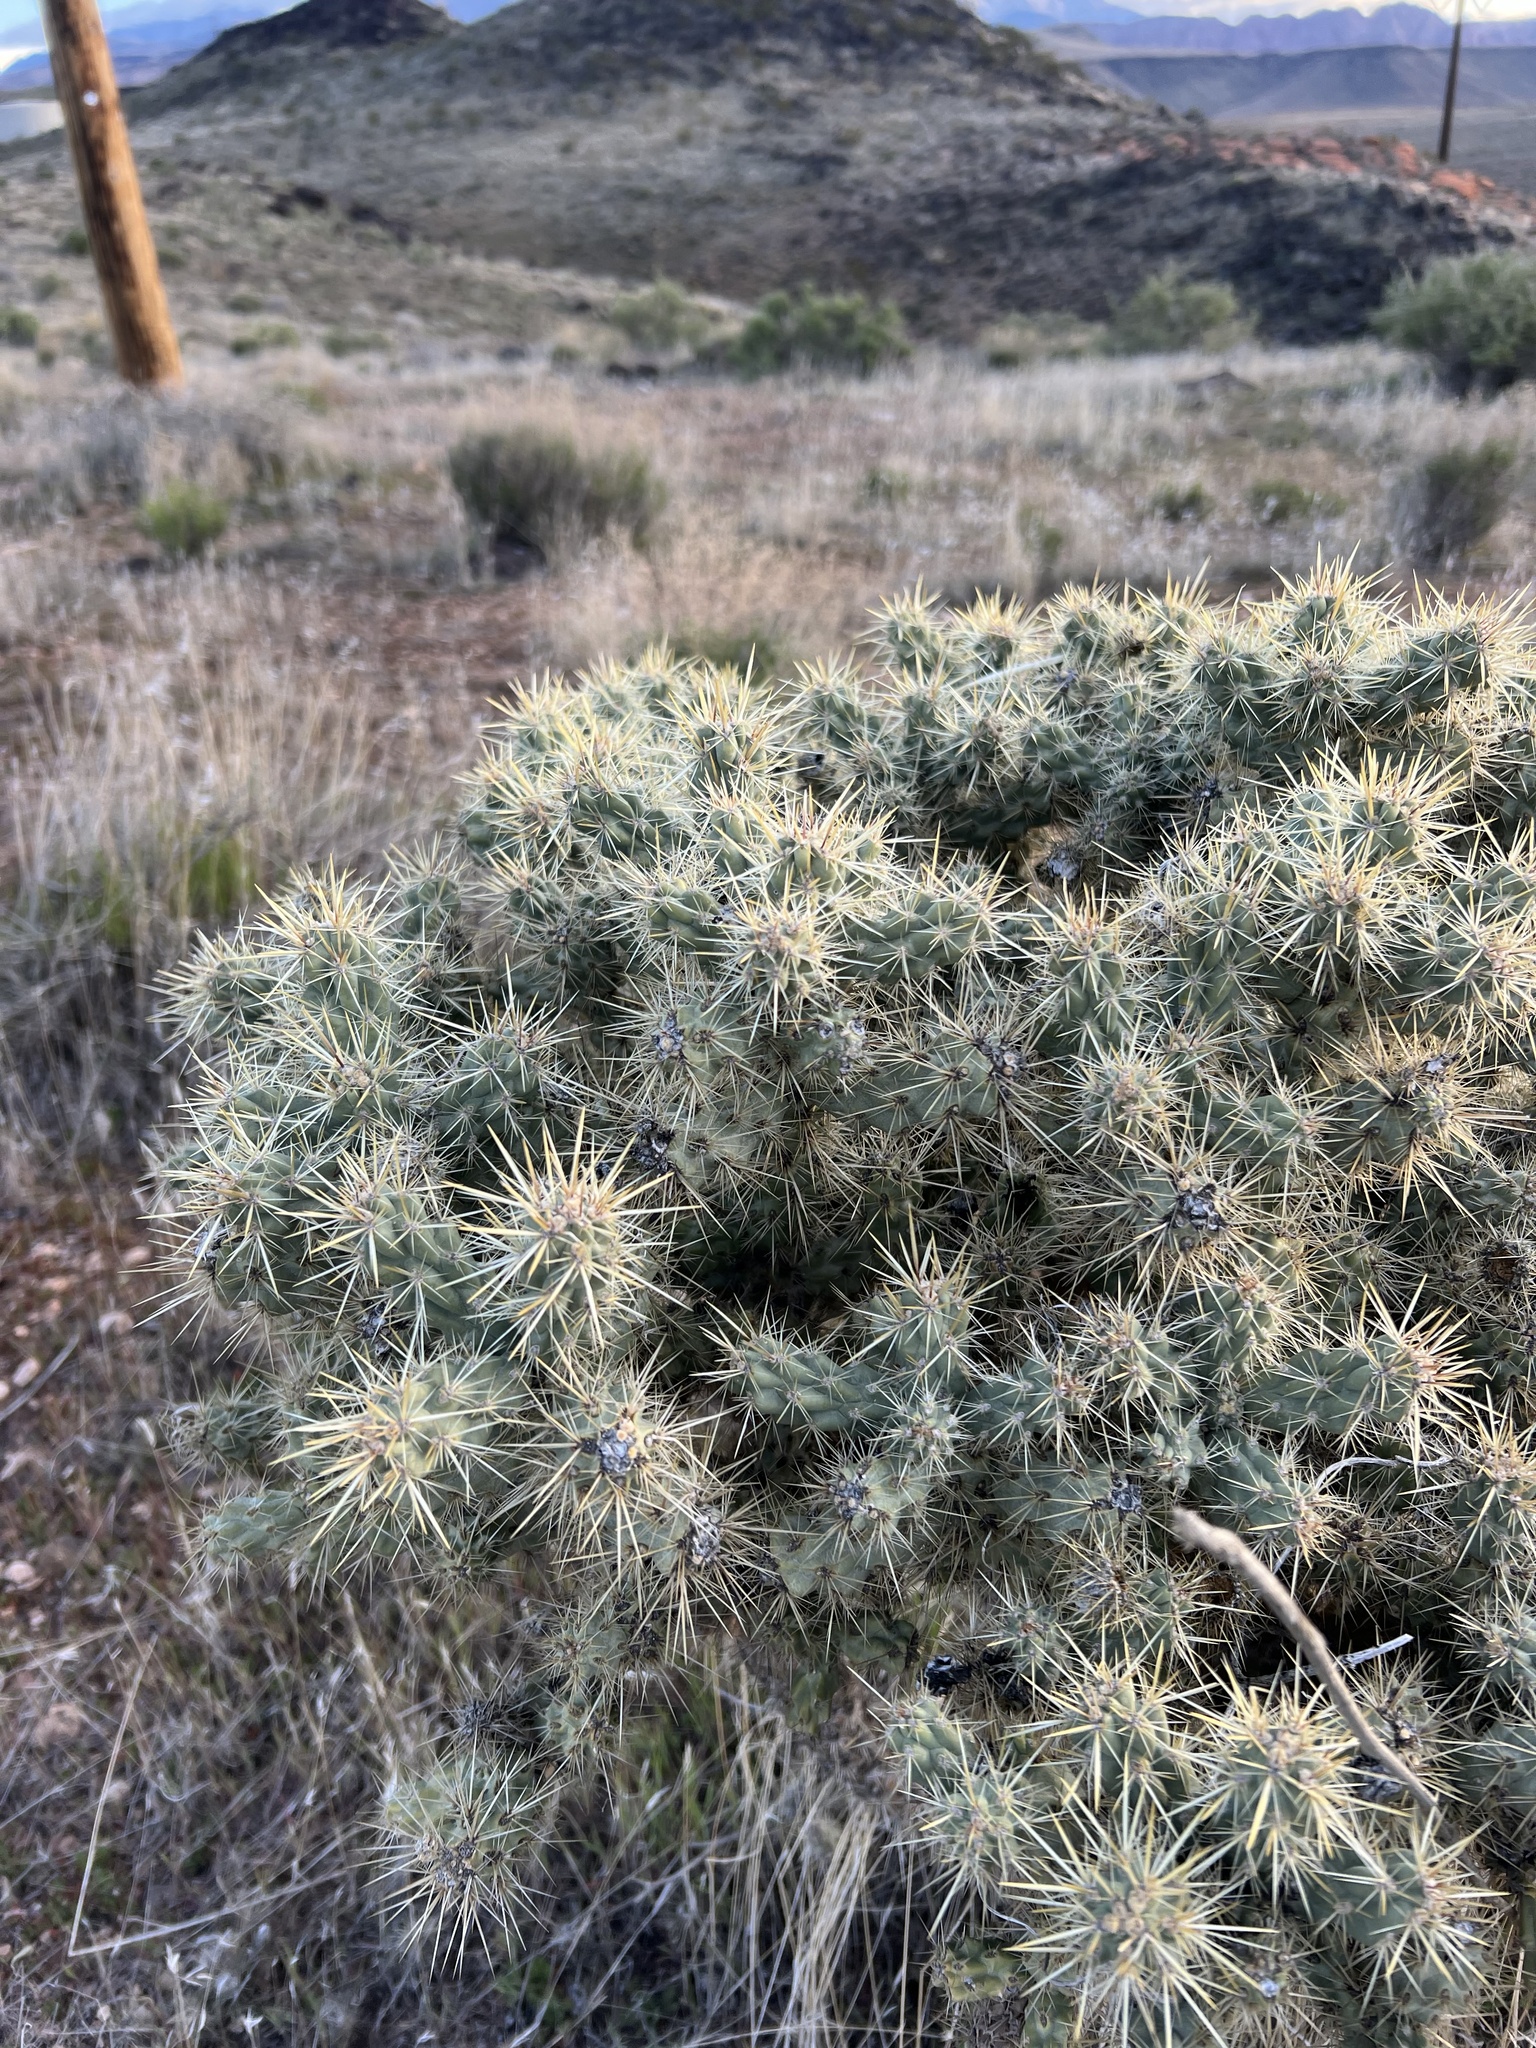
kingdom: Plantae
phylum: Tracheophyta
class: Magnoliopsida
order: Caryophyllales
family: Cactaceae
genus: Cylindropuntia
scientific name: Cylindropuntia echinocarpa
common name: Ground cholla
